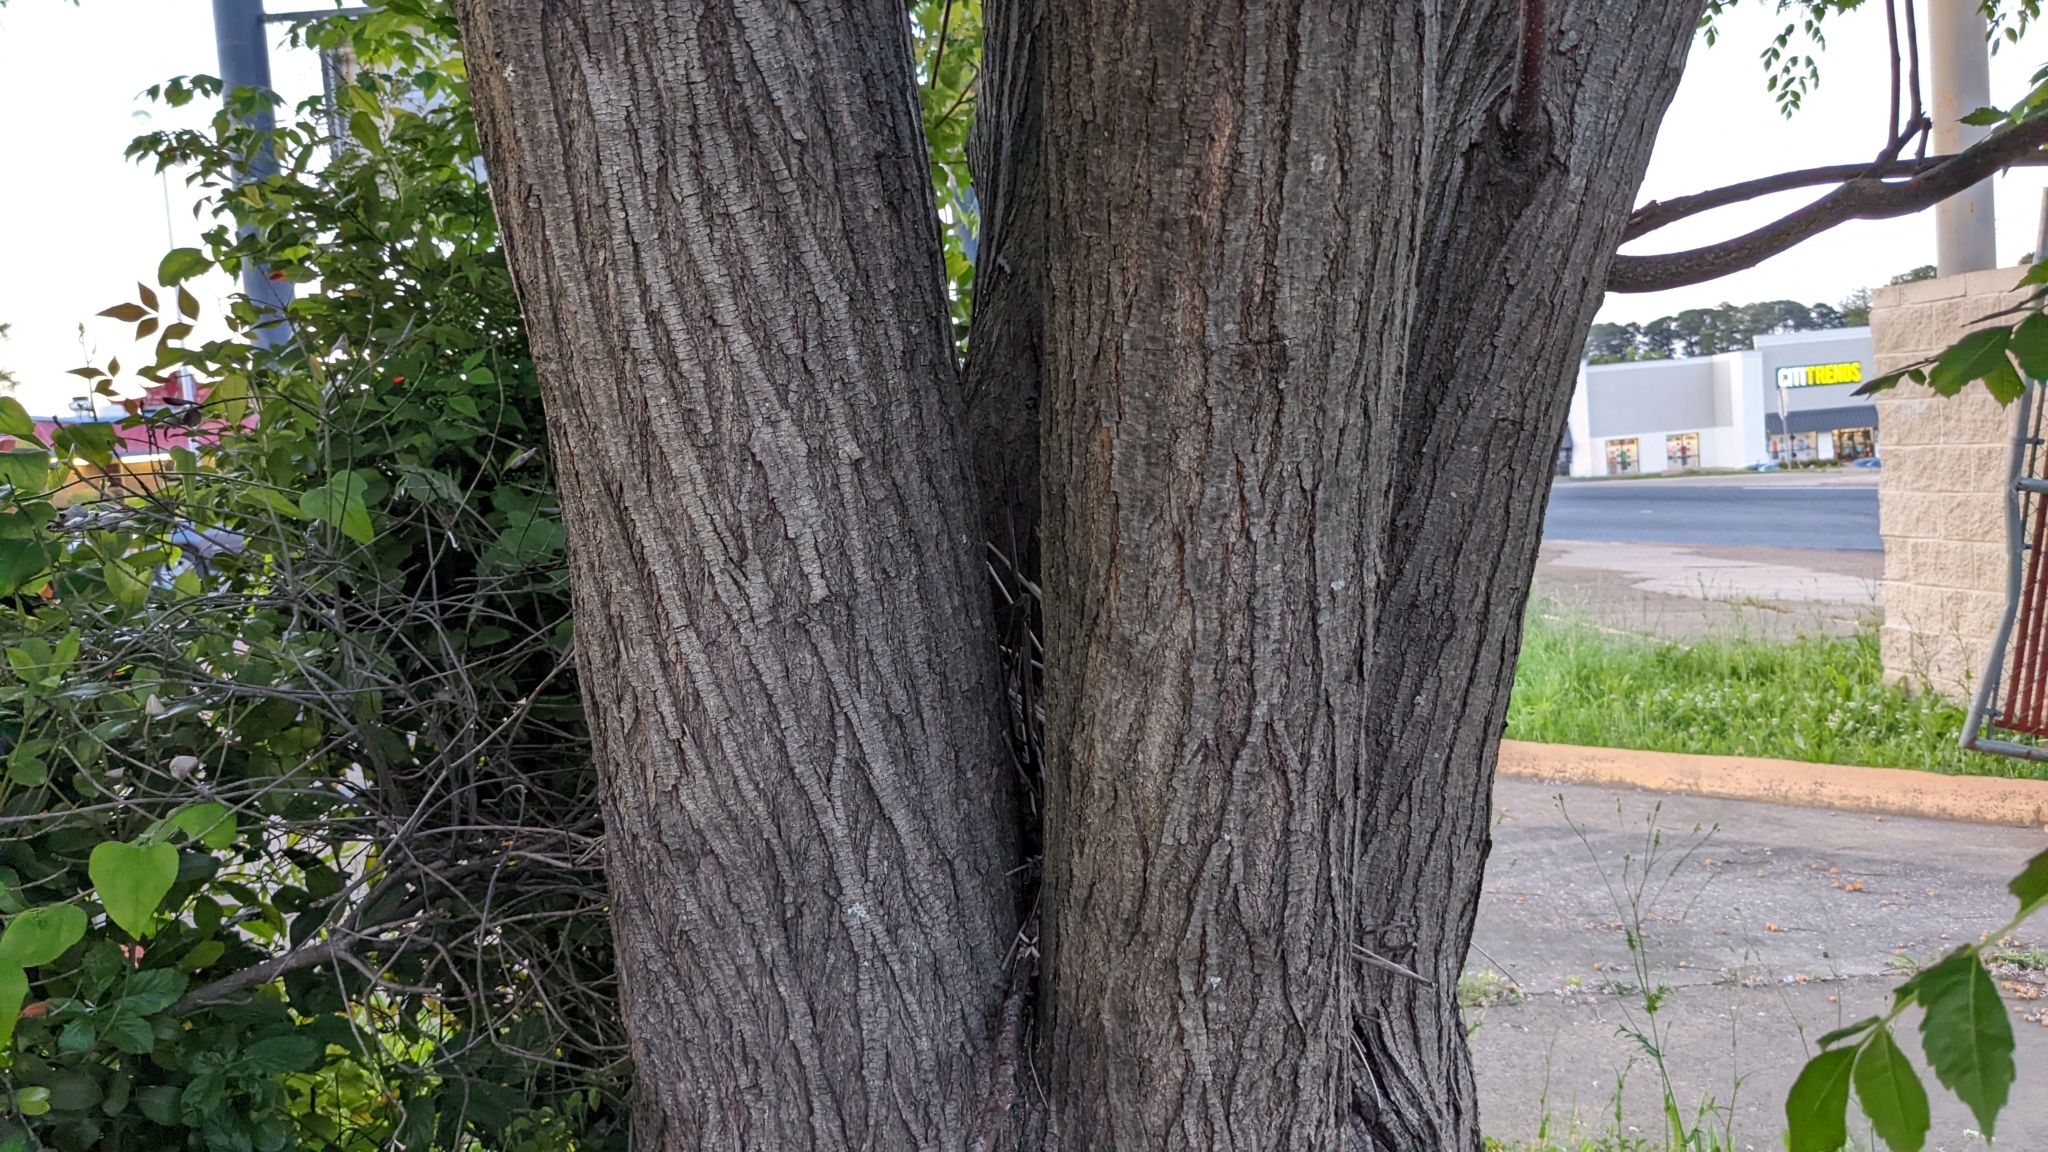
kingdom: Plantae
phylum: Tracheophyta
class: Magnoliopsida
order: Sapindales
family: Meliaceae
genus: Melia
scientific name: Melia azedarach
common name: Chinaberrytree
